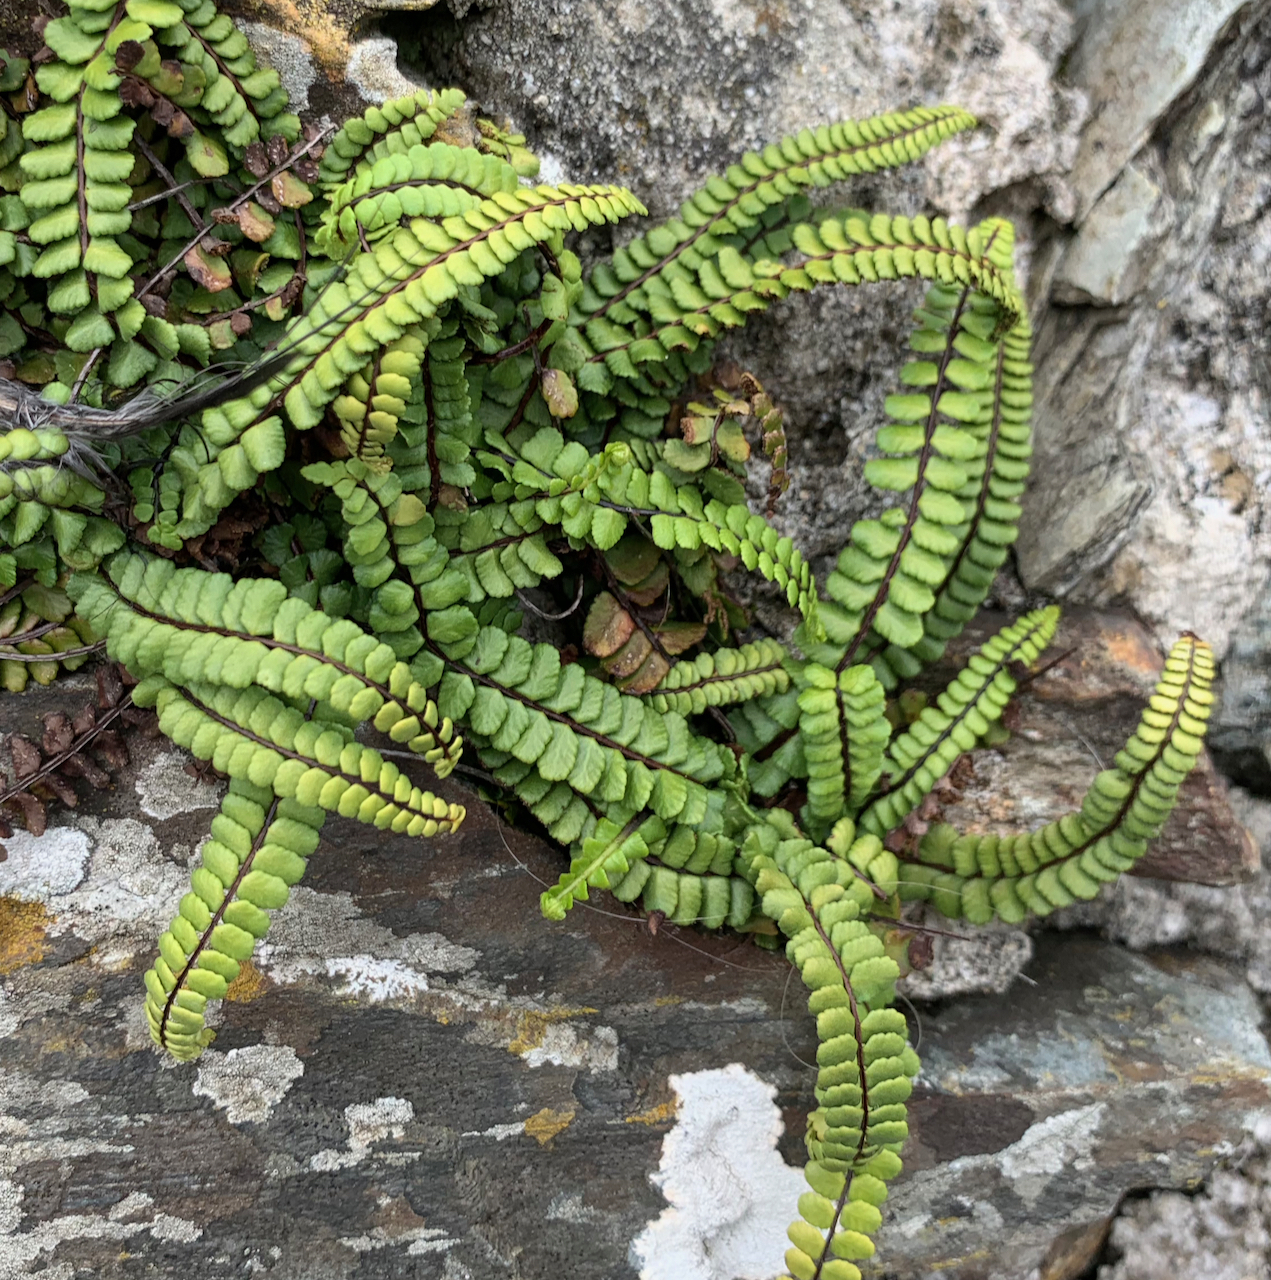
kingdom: Plantae
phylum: Tracheophyta
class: Polypodiopsida
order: Polypodiales
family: Aspleniaceae
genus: Asplenium
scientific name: Asplenium trichomanes
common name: Maidenhair spleenwort
